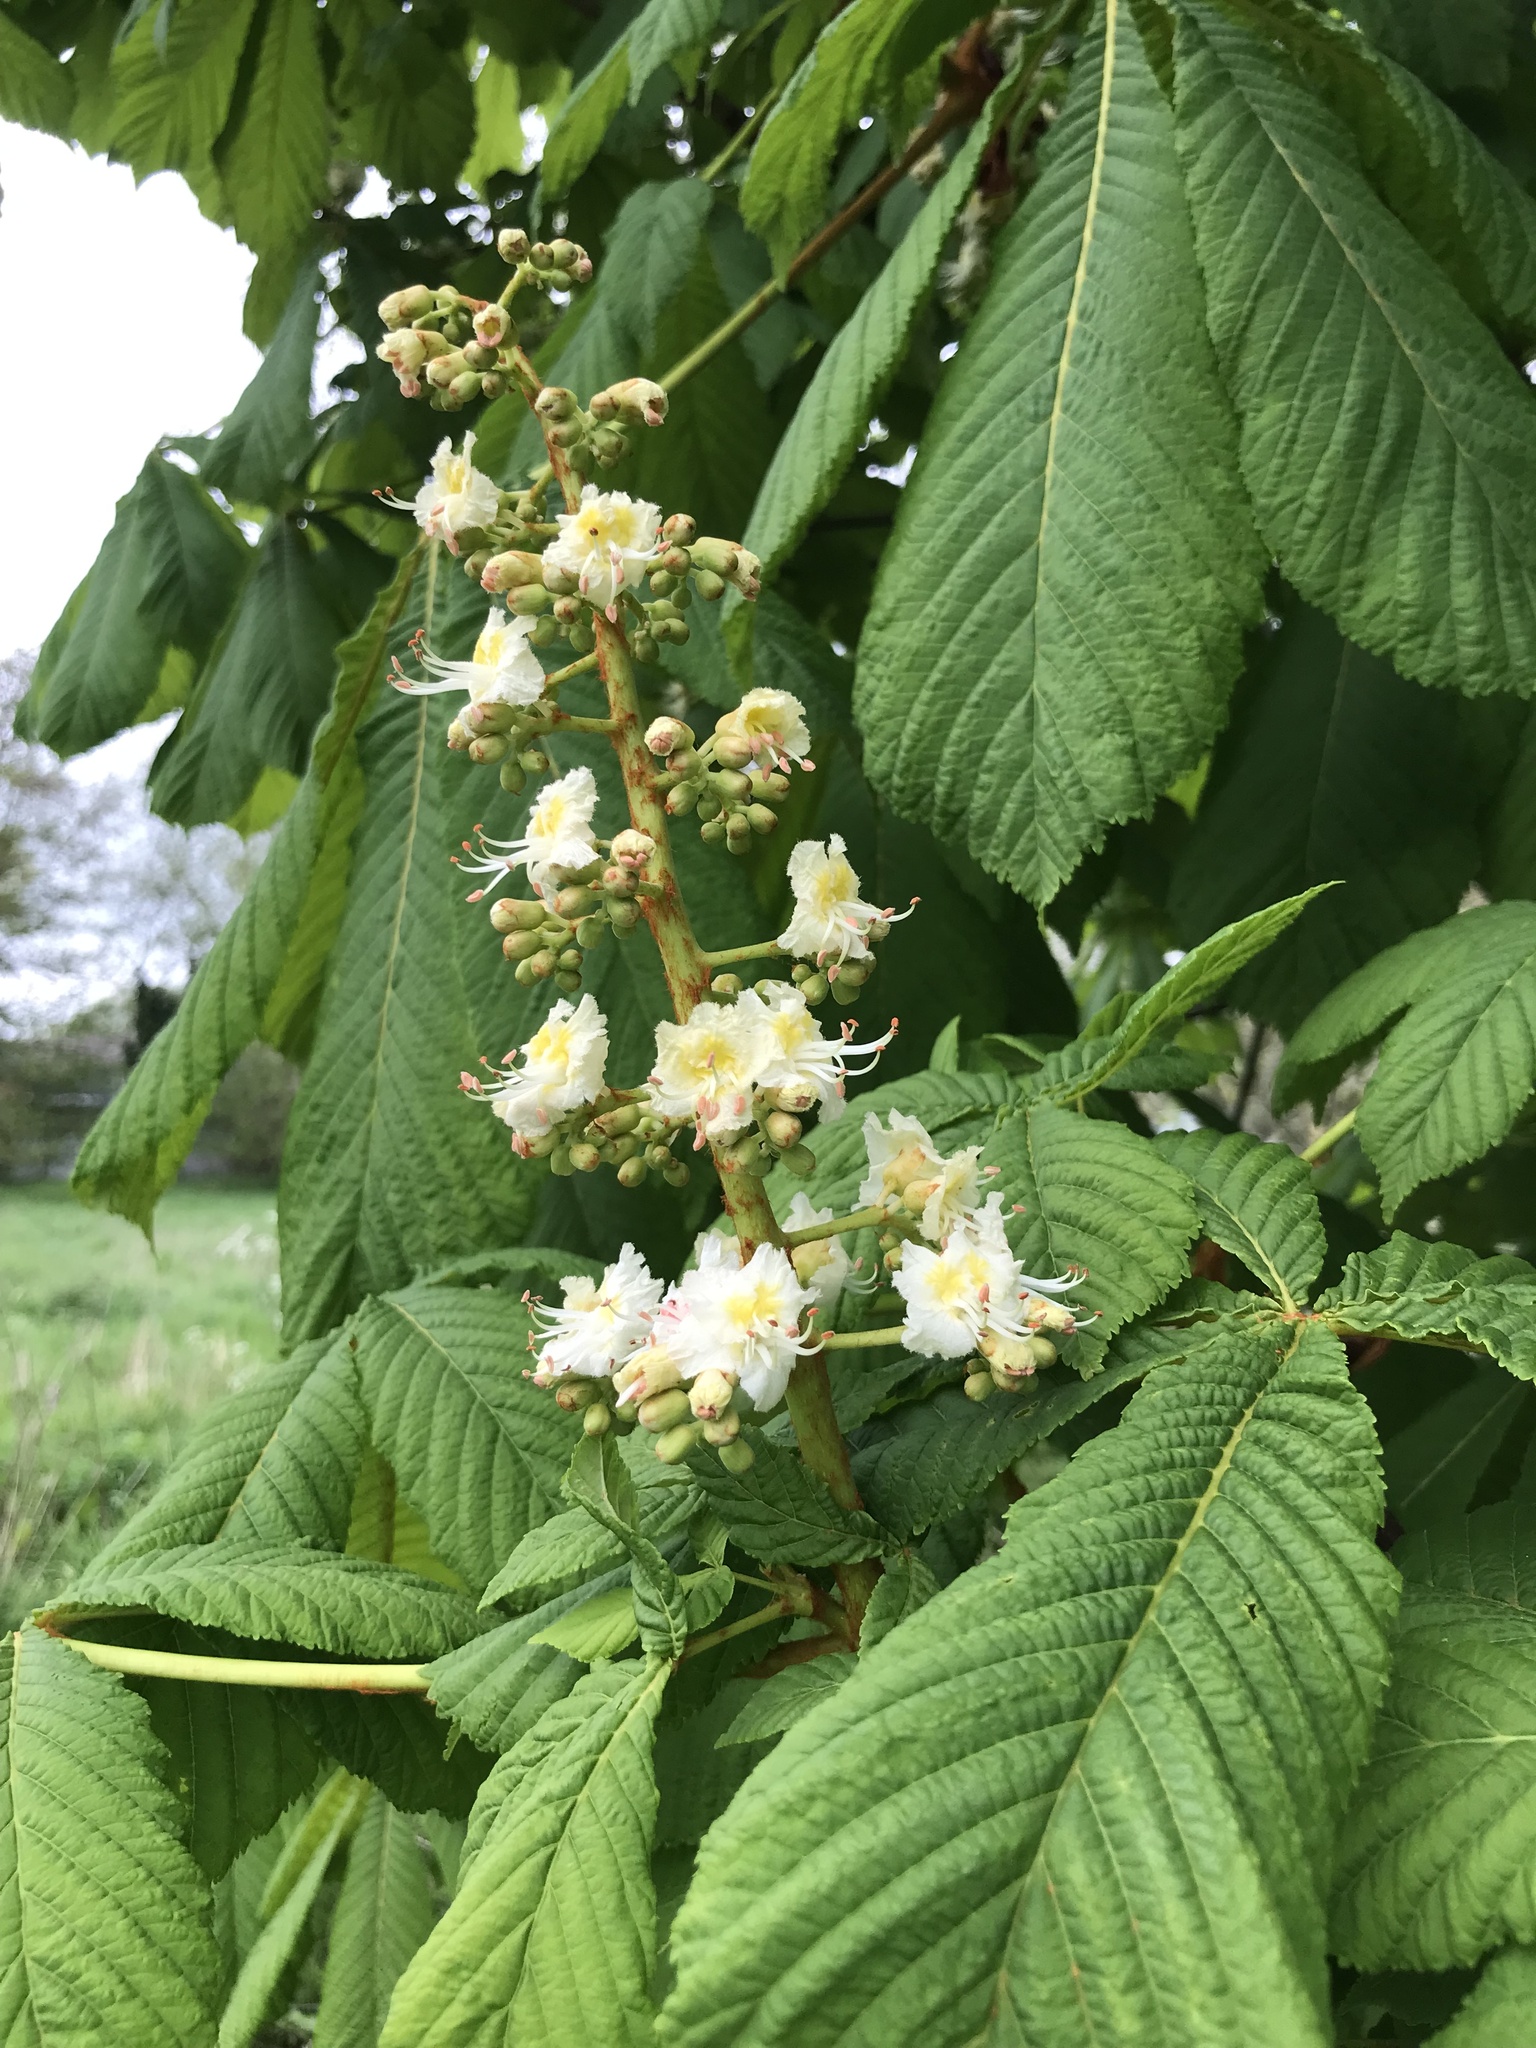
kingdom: Plantae
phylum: Tracheophyta
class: Magnoliopsida
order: Sapindales
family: Sapindaceae
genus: Aesculus
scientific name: Aesculus hippocastanum
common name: Horse-chestnut
